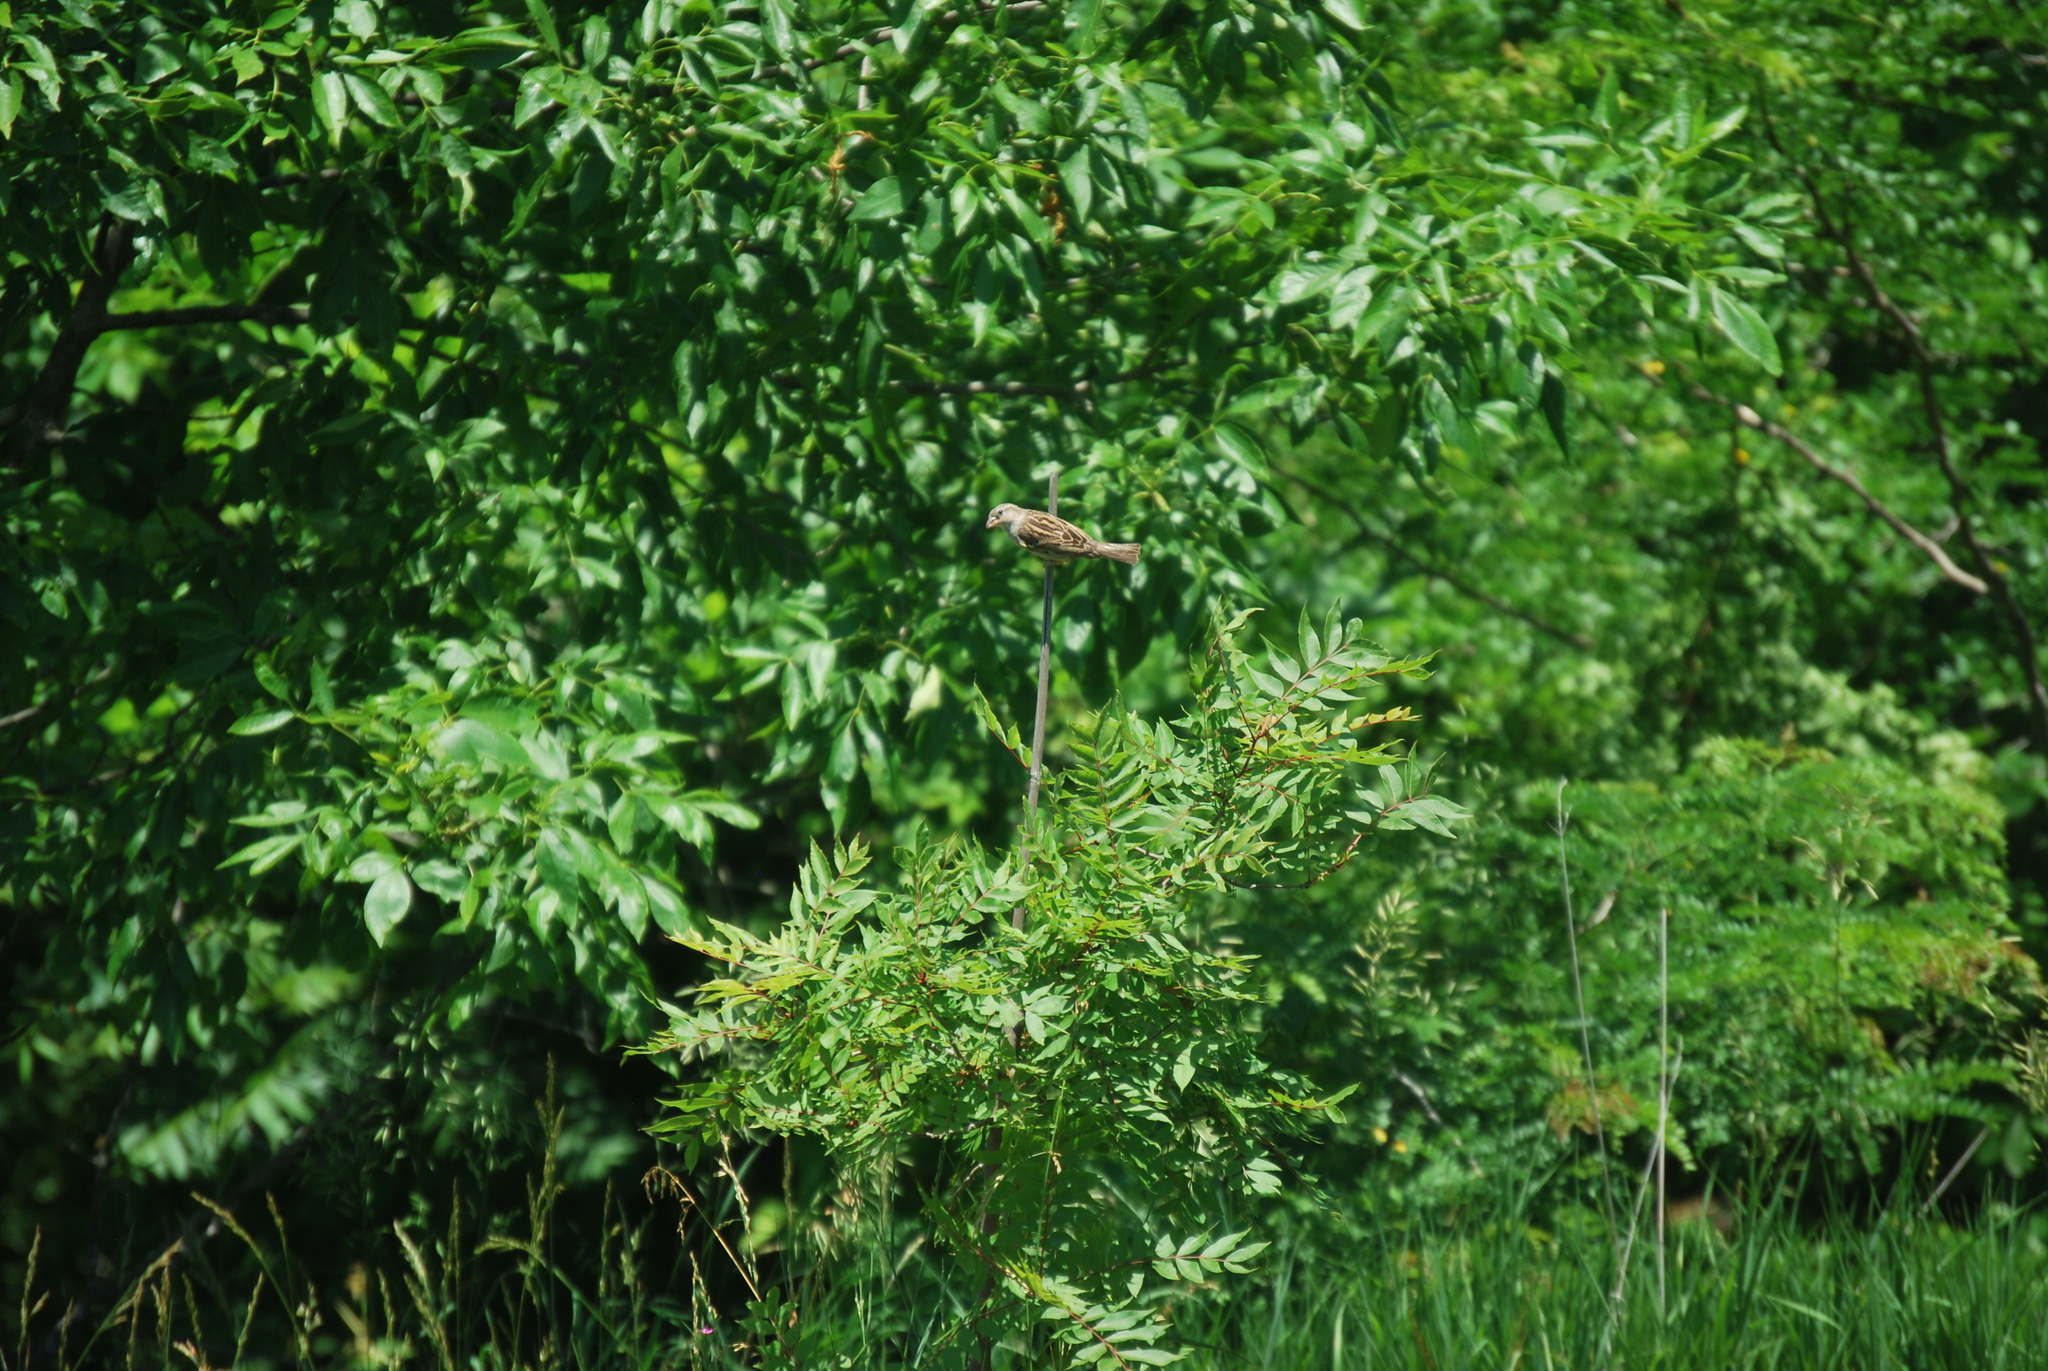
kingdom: Animalia
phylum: Chordata
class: Aves
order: Passeriformes
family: Passeridae
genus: Passer
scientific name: Passer domesticus
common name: House sparrow
